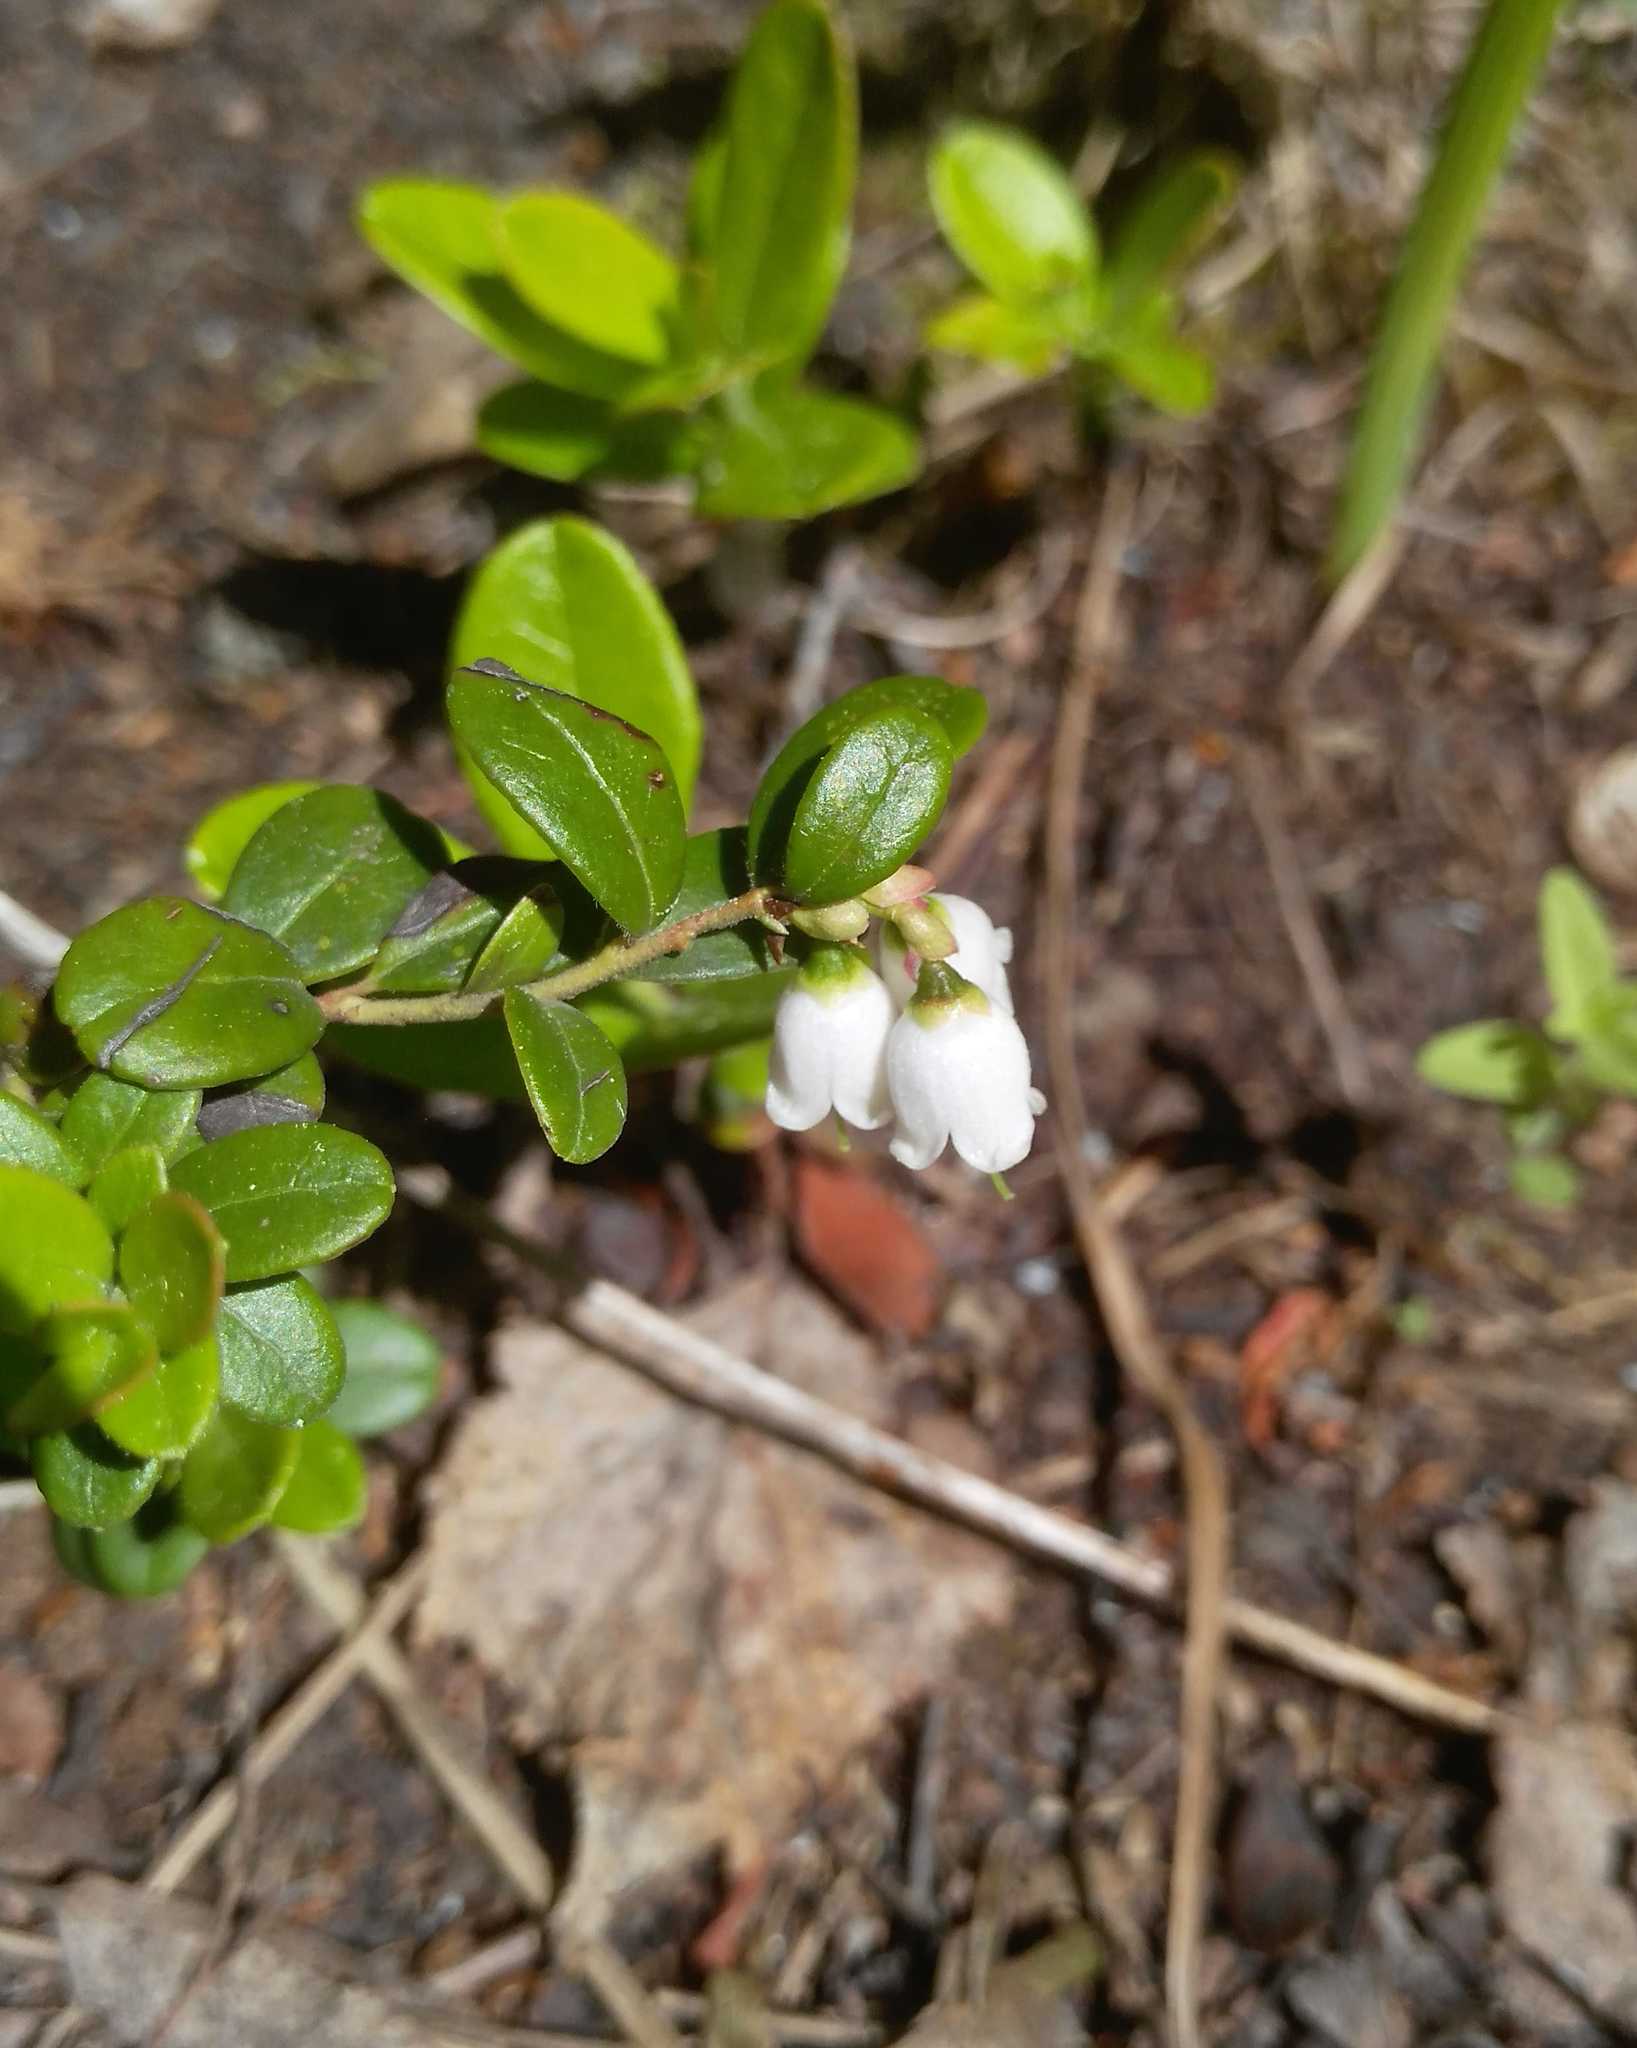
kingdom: Plantae
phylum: Tracheophyta
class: Magnoliopsida
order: Ericales
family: Ericaceae
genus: Vaccinium
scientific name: Vaccinium vitis-idaea
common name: Cowberry
